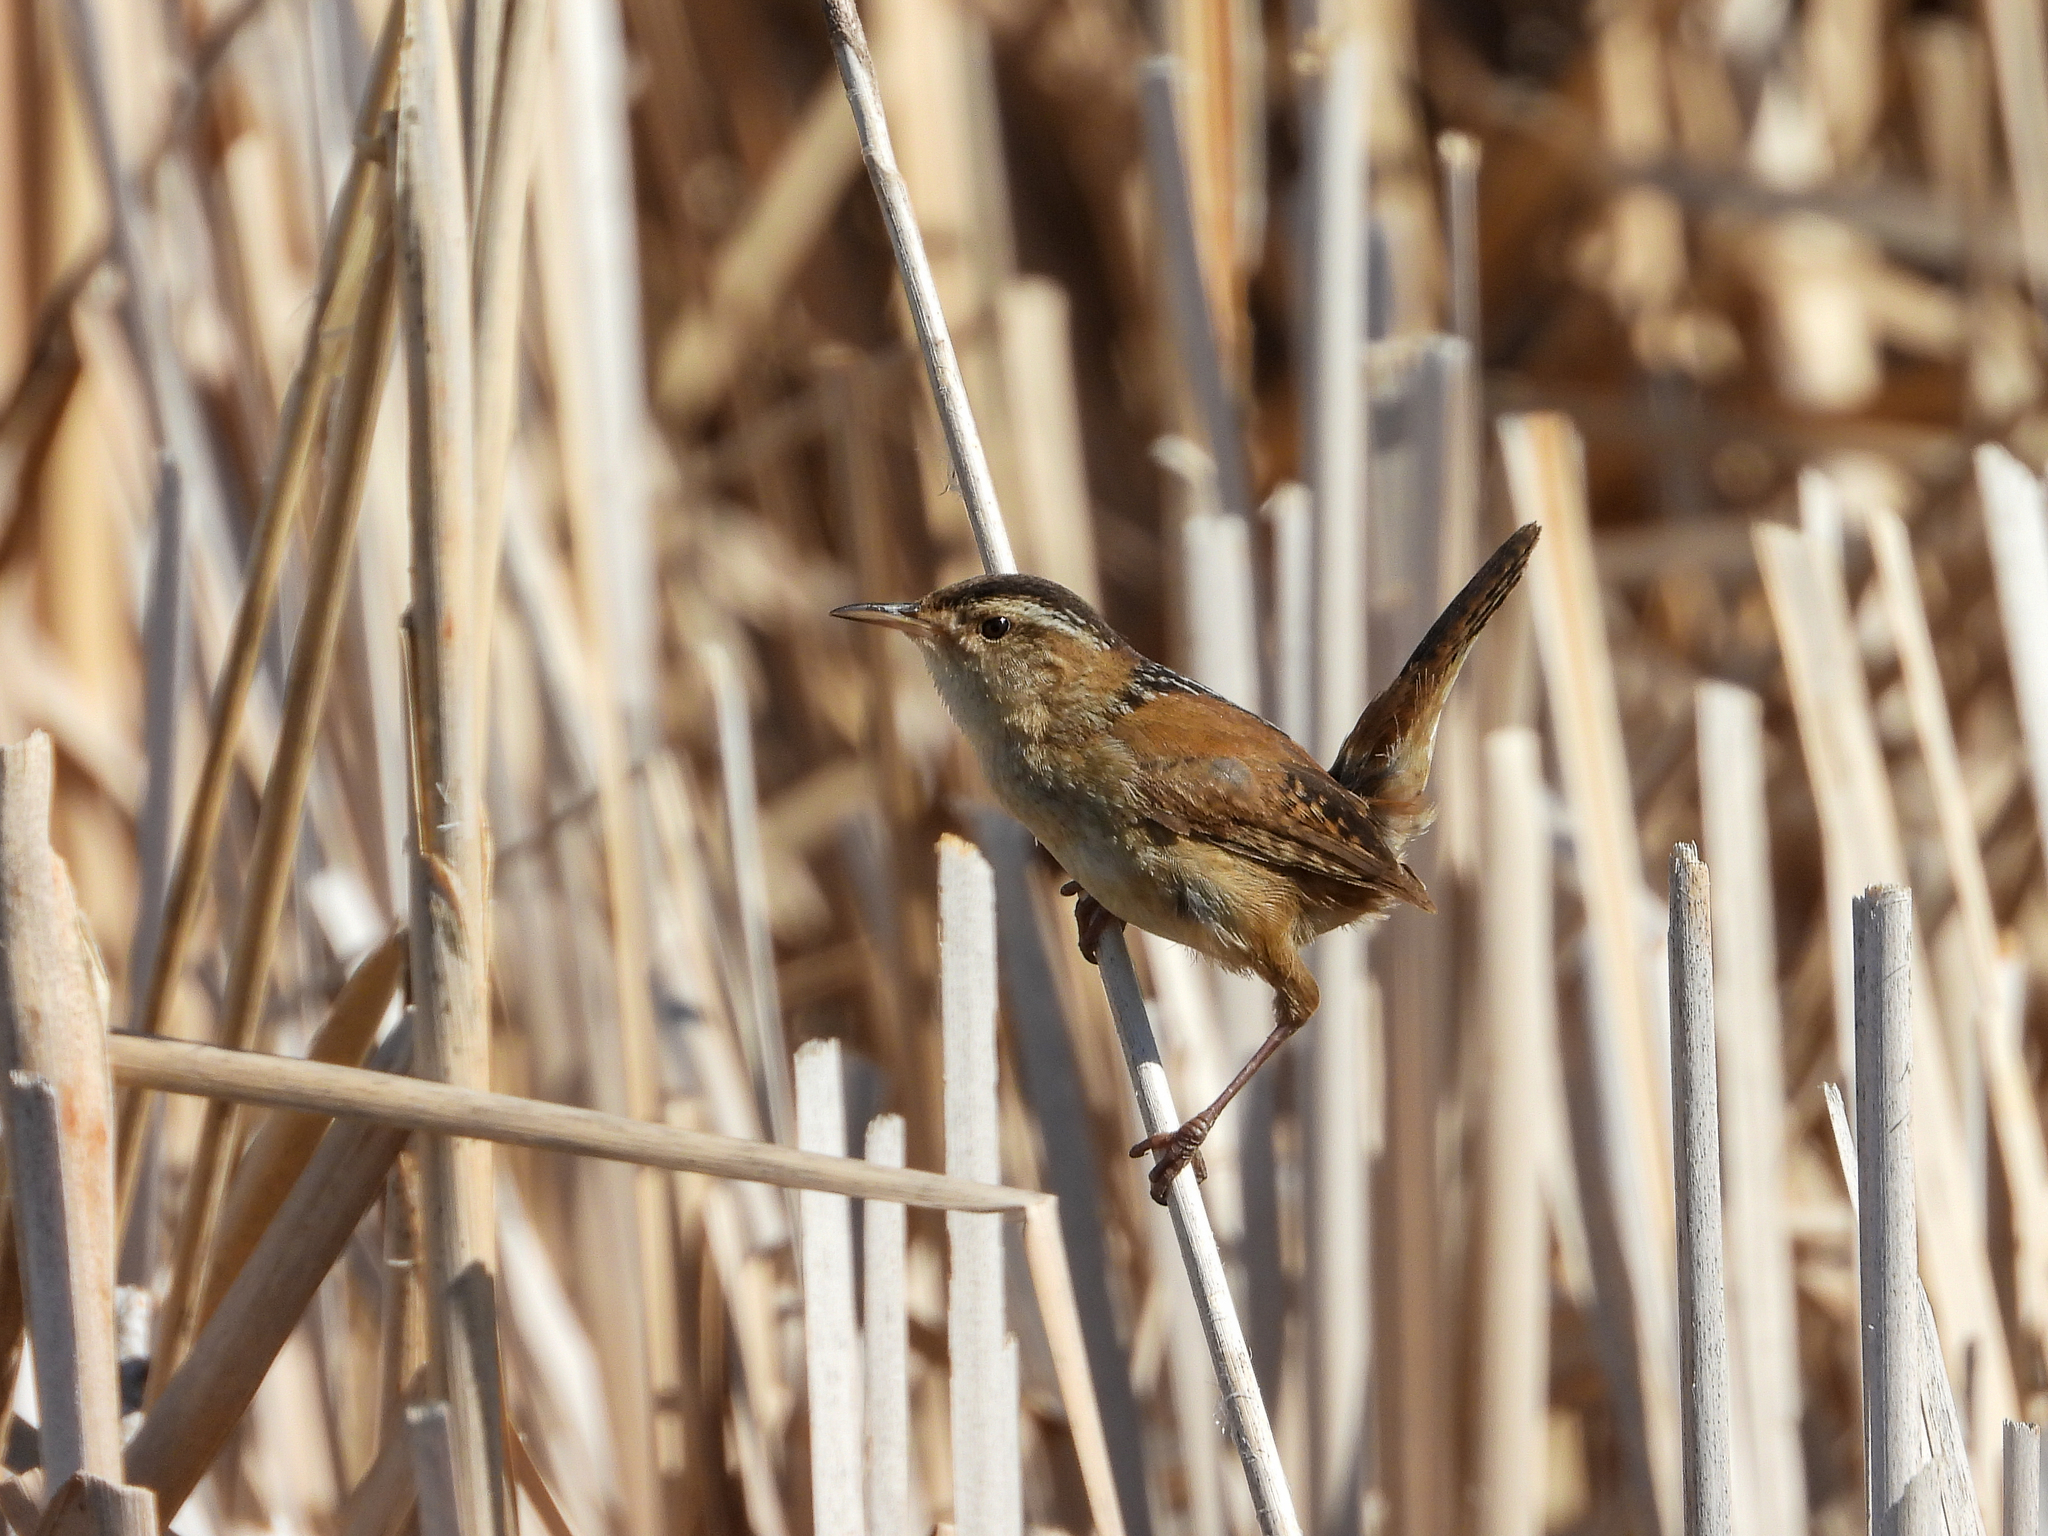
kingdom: Animalia
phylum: Chordata
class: Aves
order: Passeriformes
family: Troglodytidae
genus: Cistothorus
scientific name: Cistothorus palustris
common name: Marsh wren
